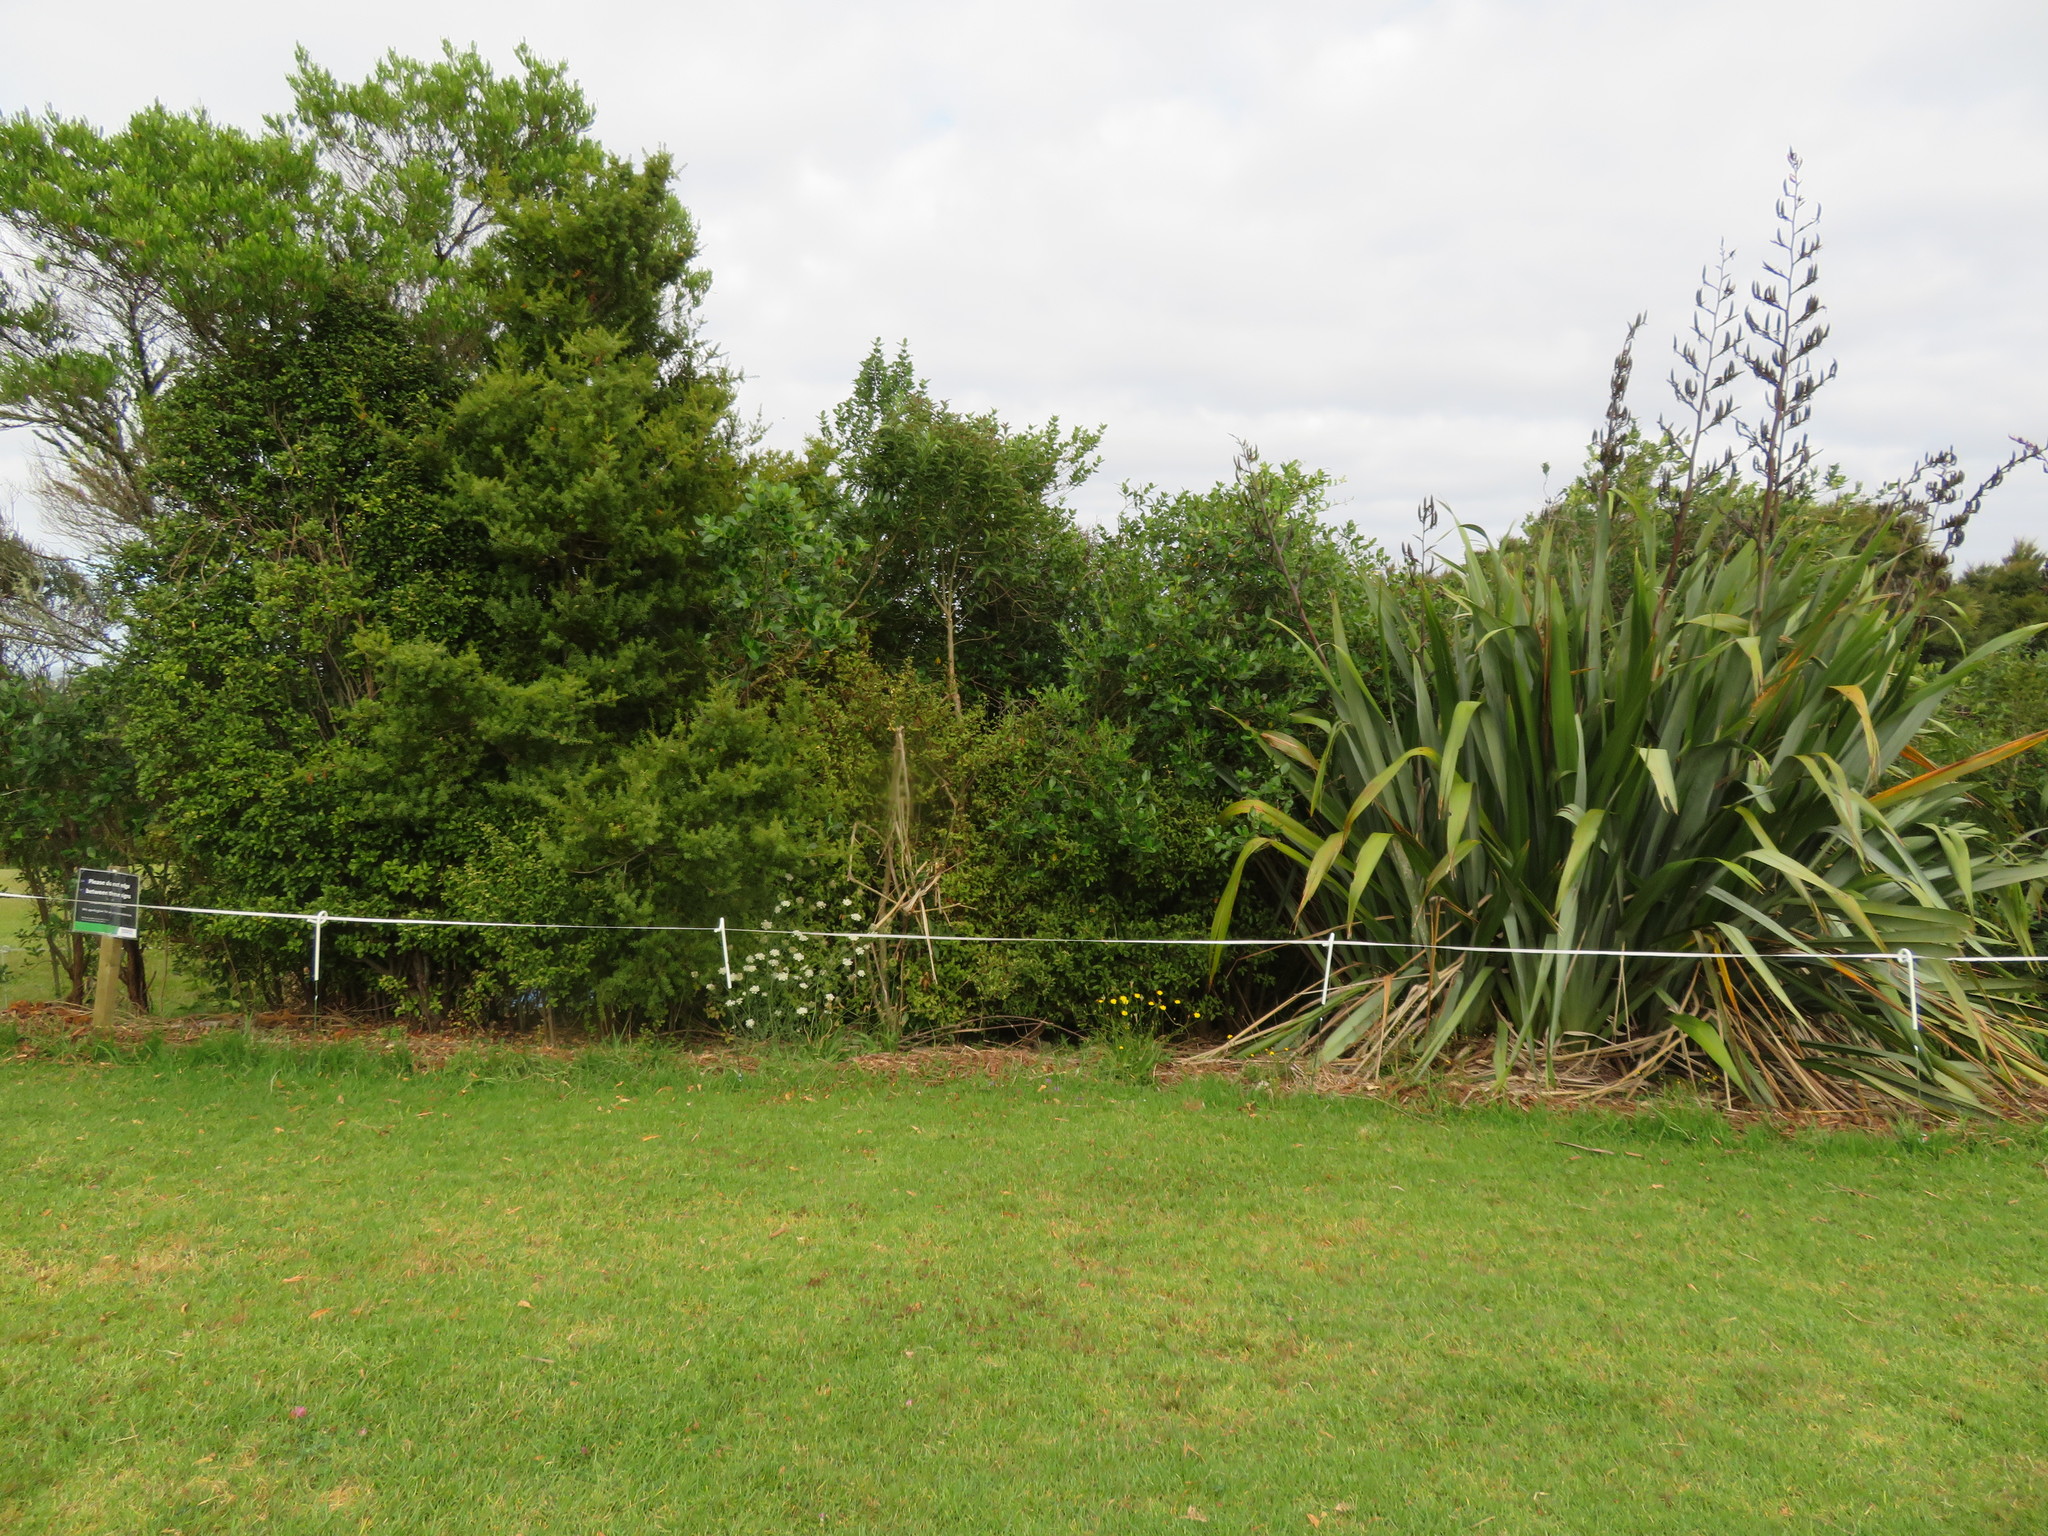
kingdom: Plantae
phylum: Tracheophyta
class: Magnoliopsida
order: Lamiales
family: Oleaceae
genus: Ligustrum
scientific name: Ligustrum lucidum
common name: Glossy privet
